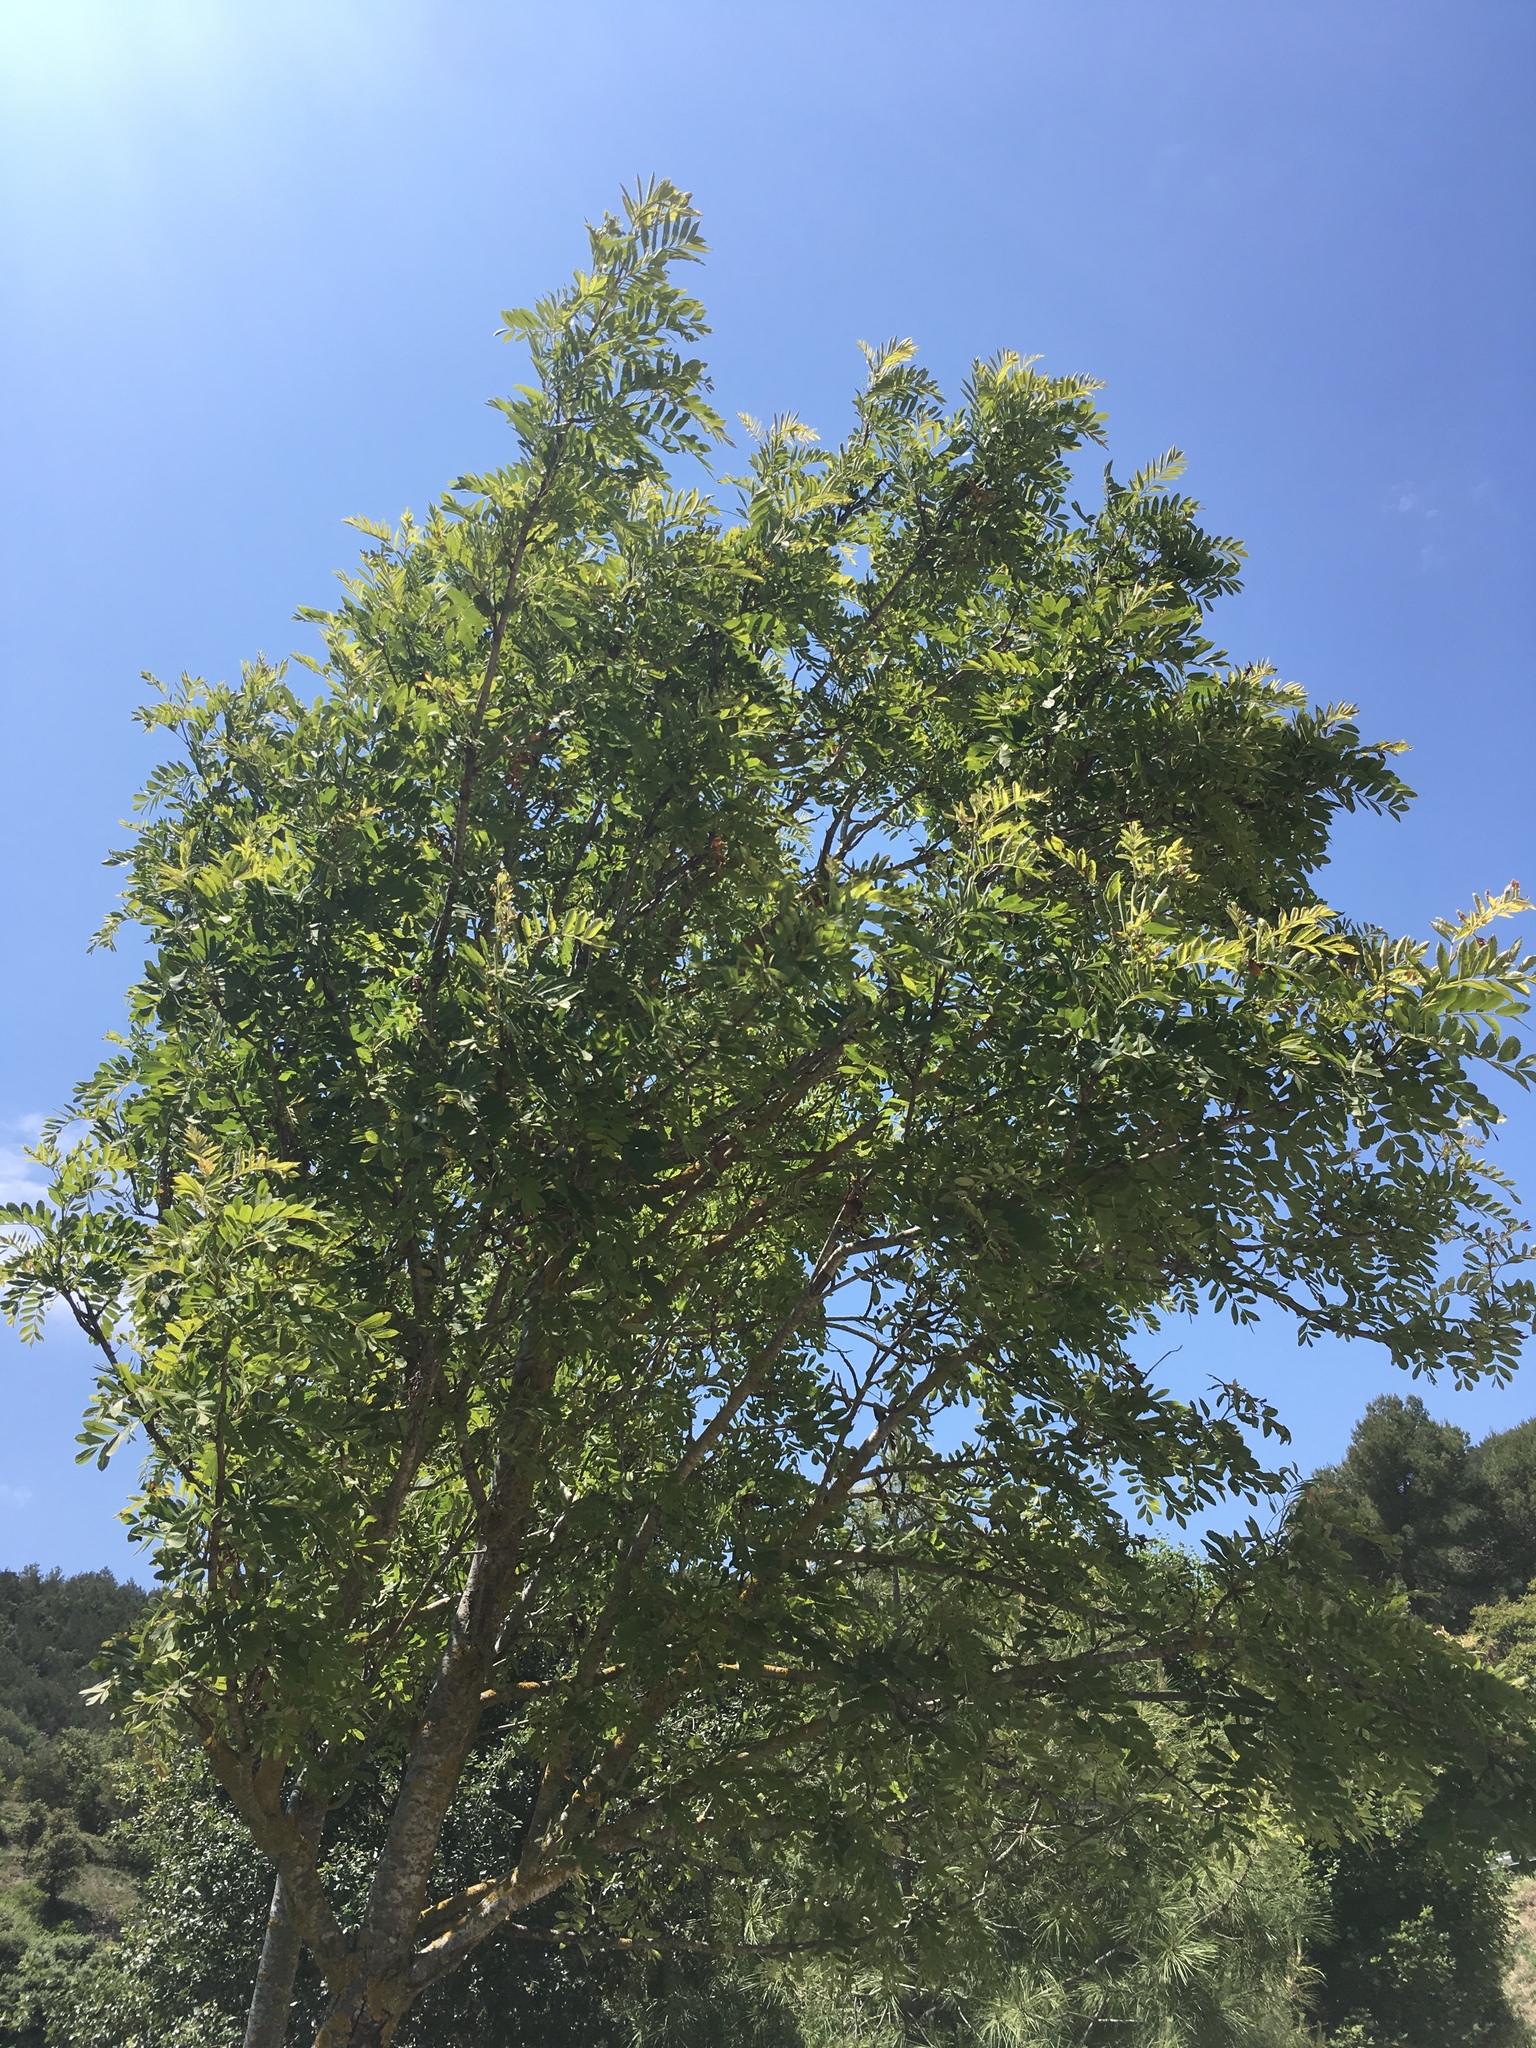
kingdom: Plantae
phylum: Tracheophyta
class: Magnoliopsida
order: Rosales
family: Rosaceae
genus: Cormus
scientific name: Cormus domestica
